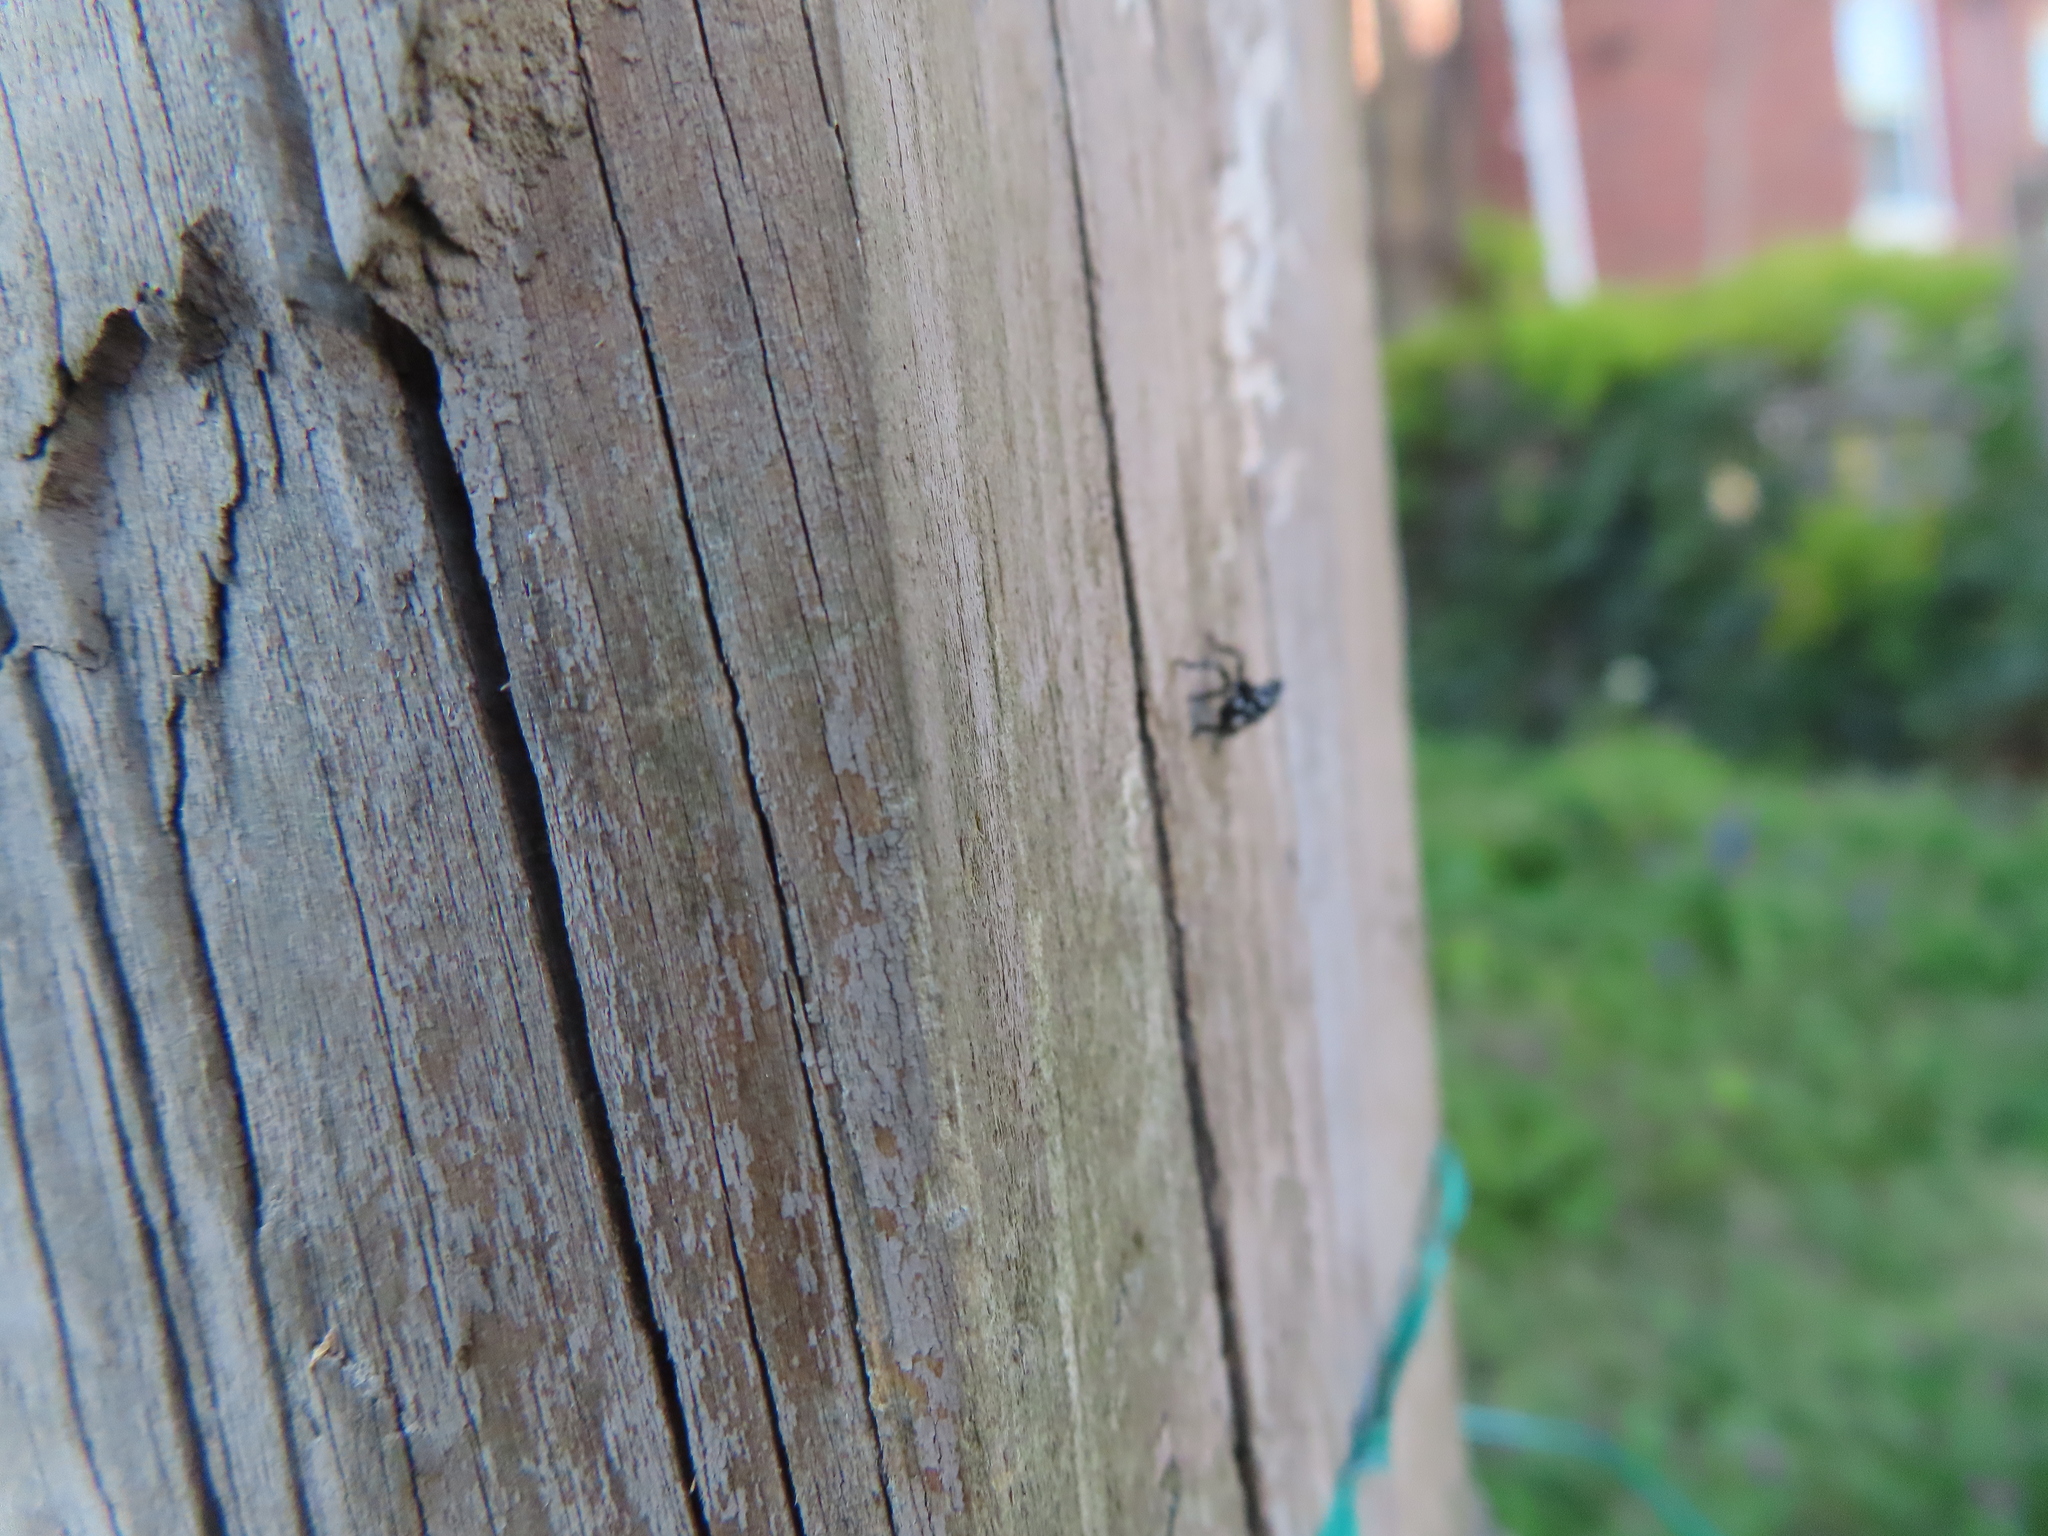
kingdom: Animalia
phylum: Arthropoda
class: Insecta
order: Hemiptera
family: Fulgoridae
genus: Lycorma
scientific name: Lycorma delicatula
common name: Spotted lanternfly
